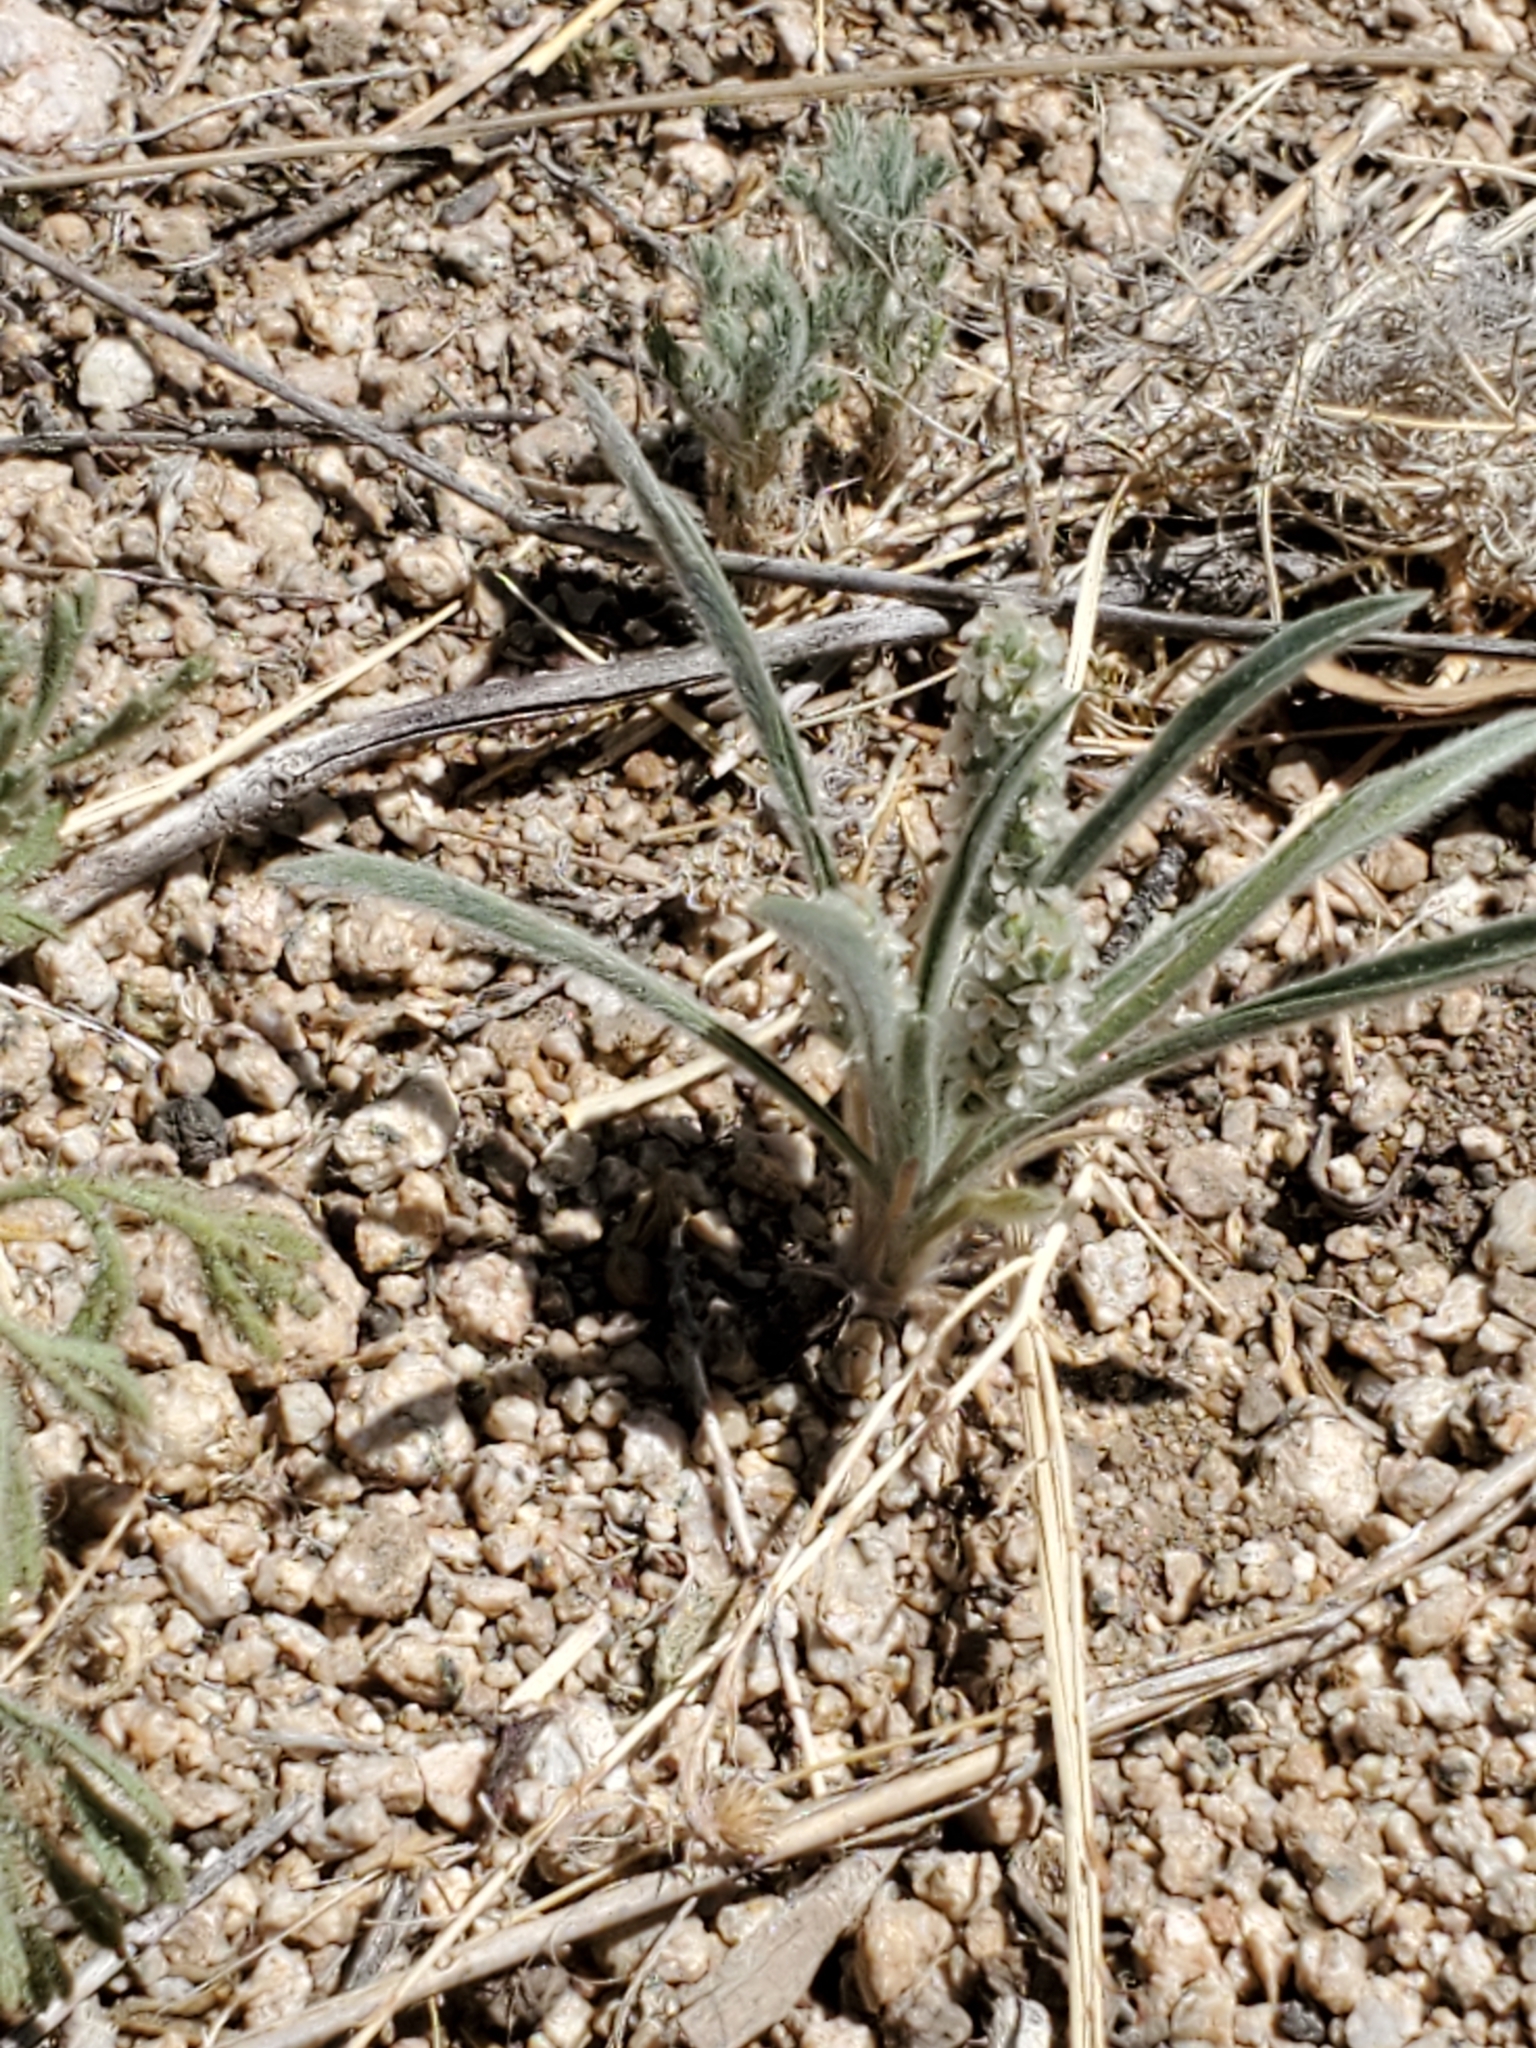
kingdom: Plantae
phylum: Tracheophyta
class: Magnoliopsida
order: Lamiales
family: Plantaginaceae
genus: Plantago
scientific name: Plantago patagonica
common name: Patagonia indian-wheat
